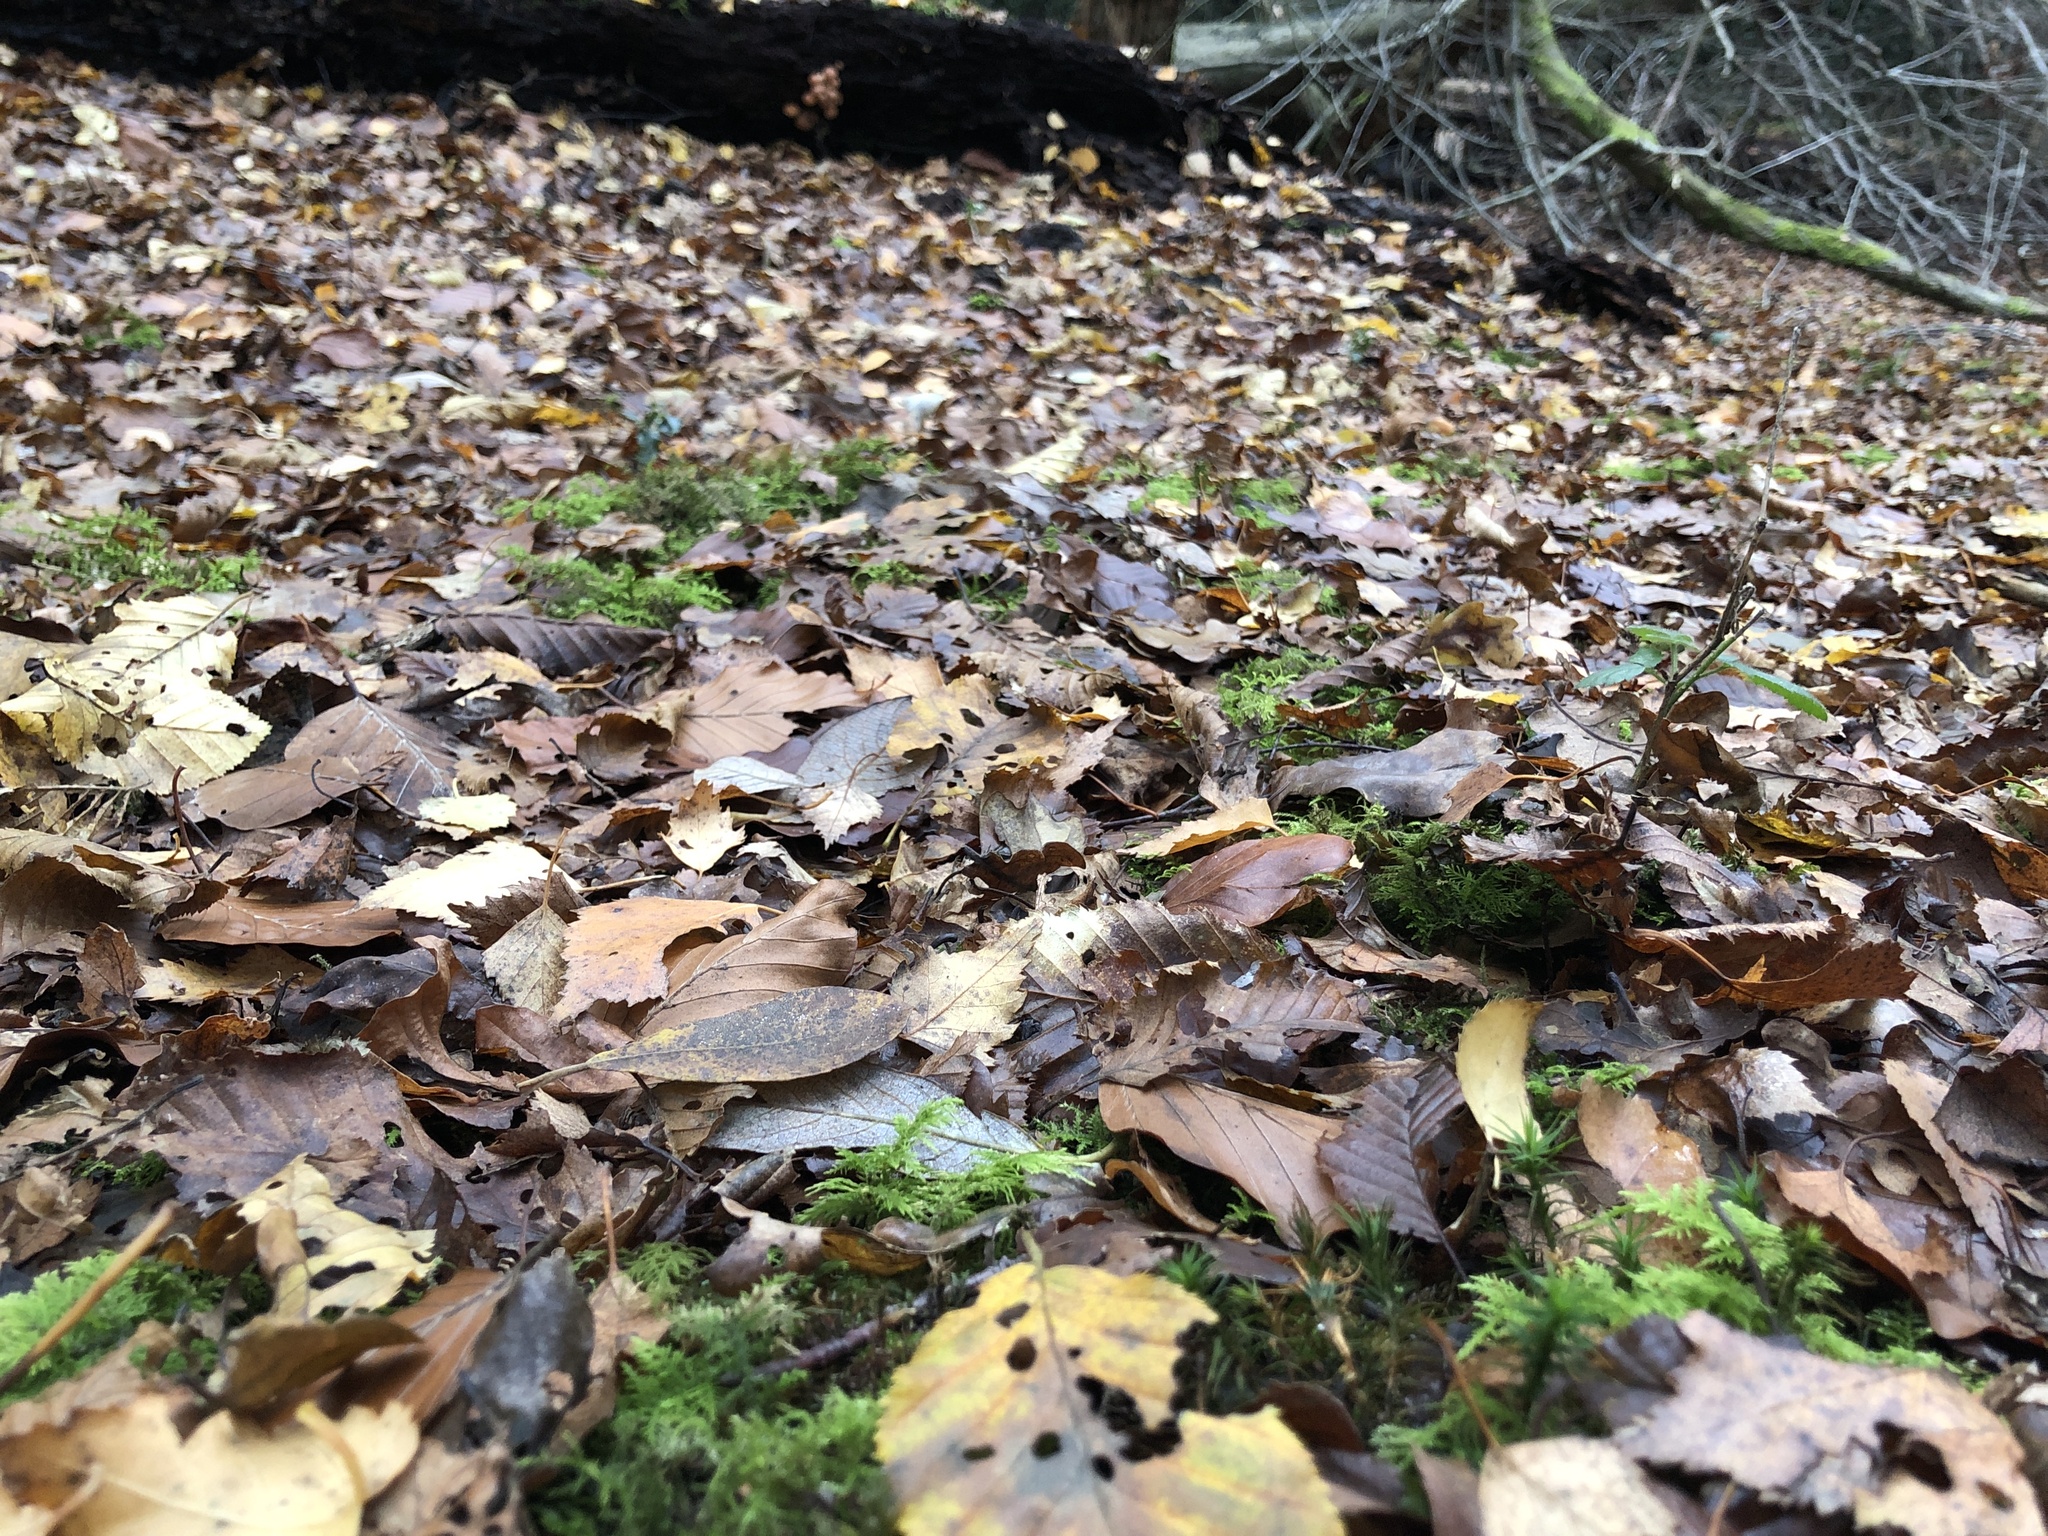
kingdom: Plantae
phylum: Bryophyta
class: Bryopsida
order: Hypnales
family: Thuidiaceae
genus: Thuidium
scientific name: Thuidium tamariscinum
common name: Common tamarisk-moss
